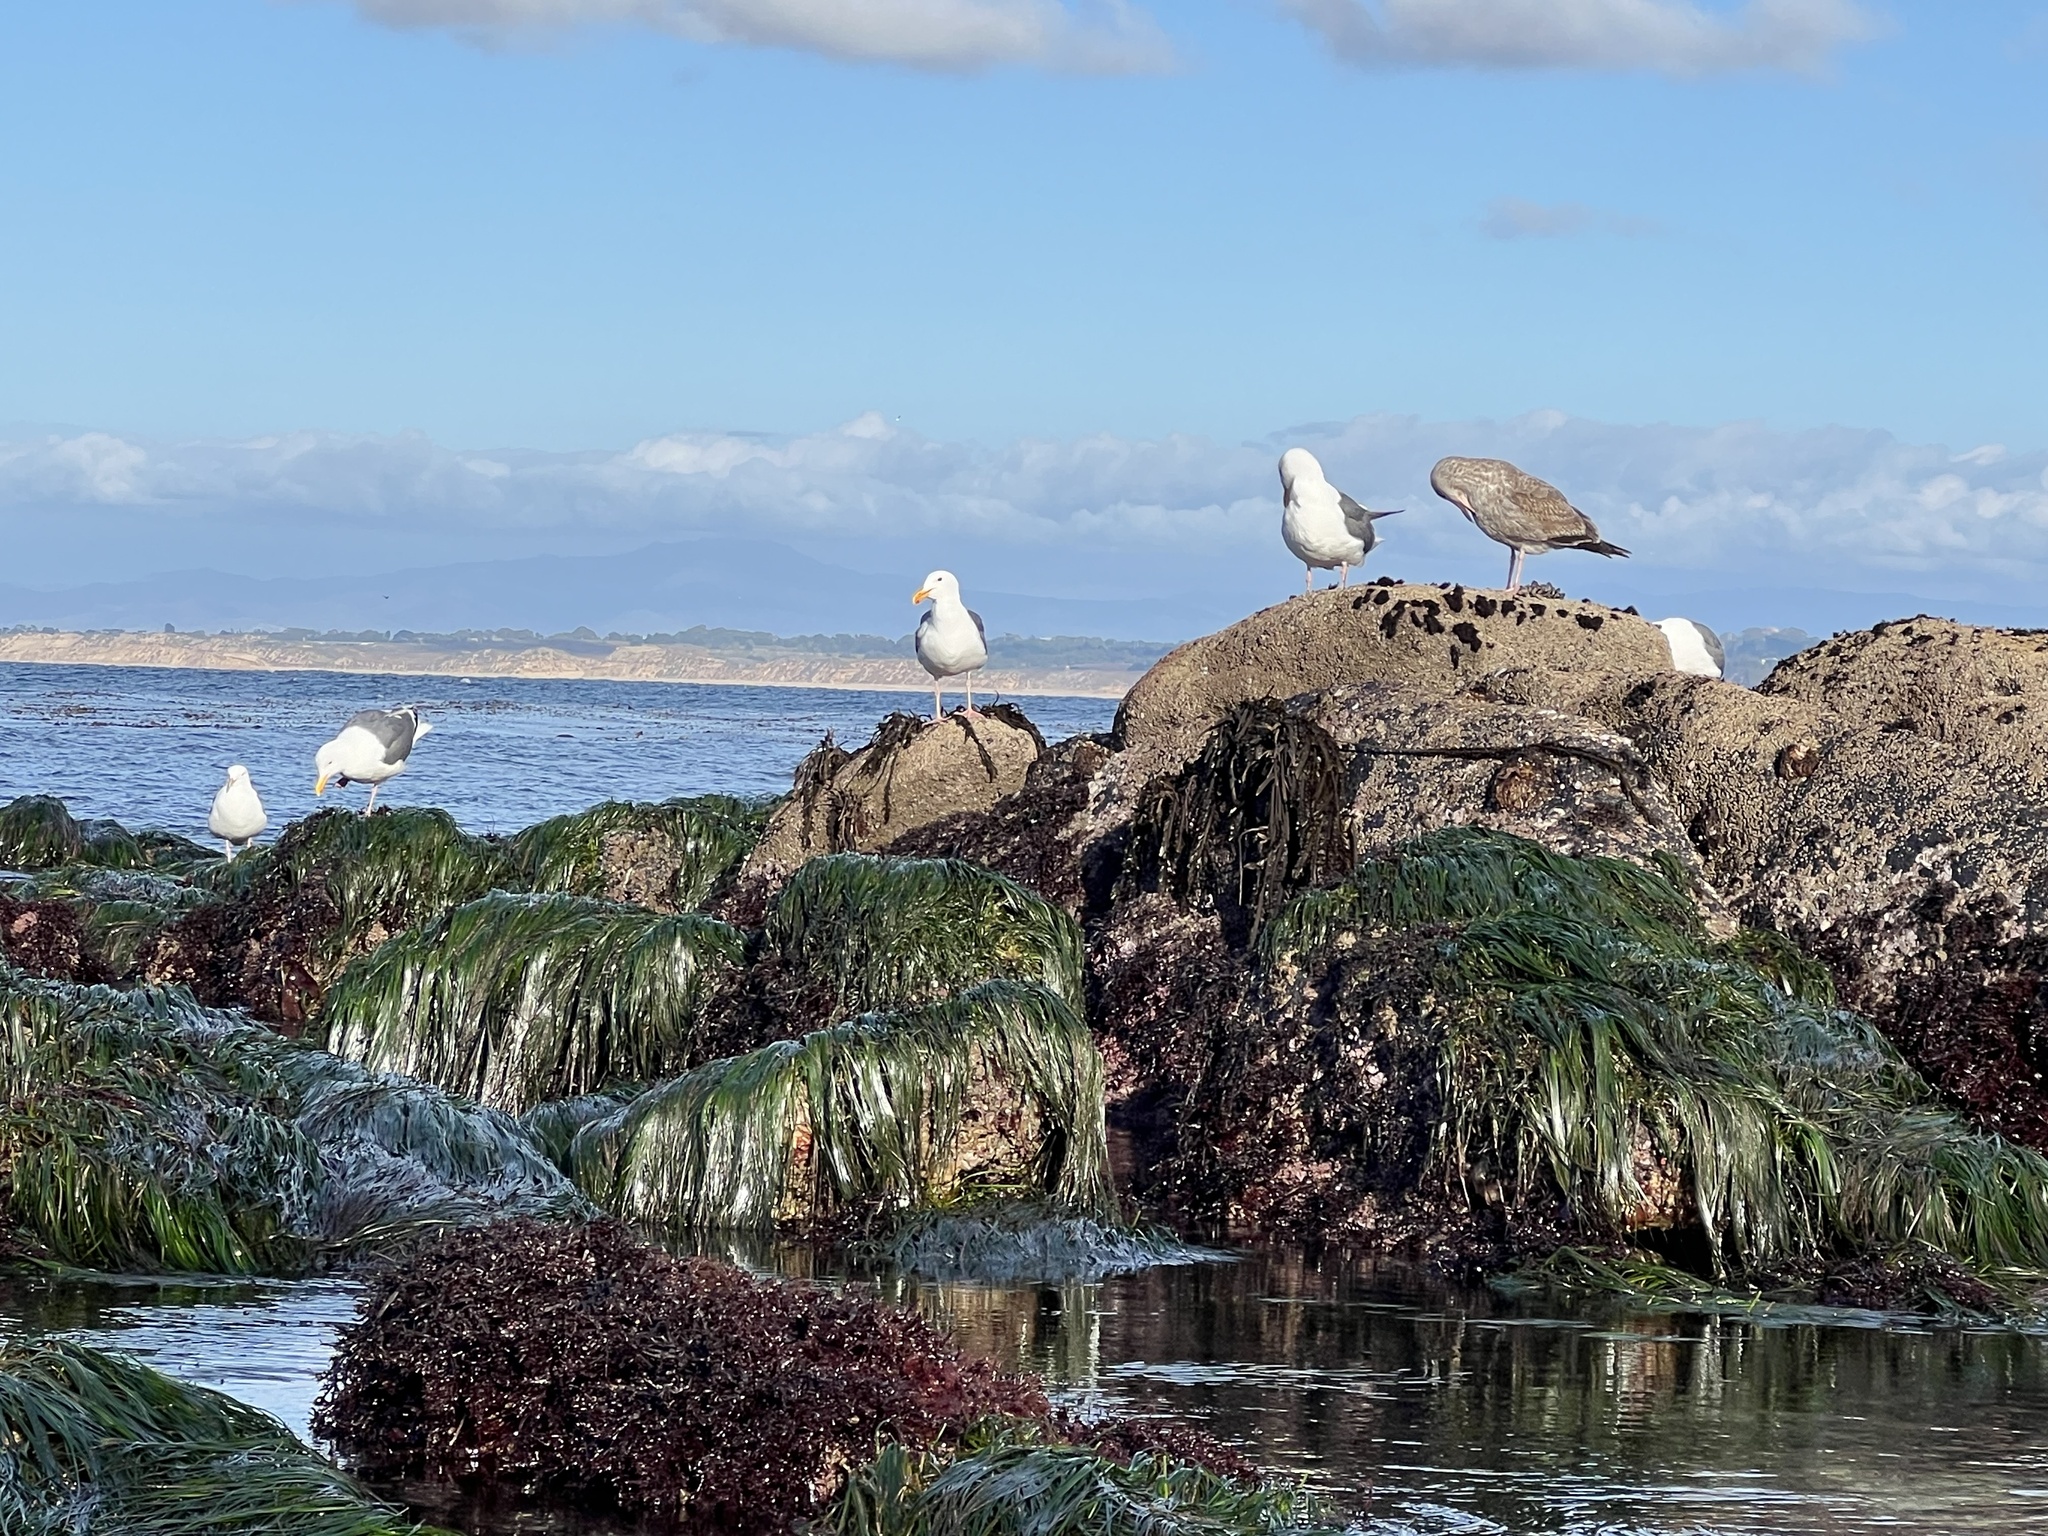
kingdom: Animalia
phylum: Chordata
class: Aves
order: Charadriiformes
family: Laridae
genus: Larus
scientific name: Larus occidentalis
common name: Western gull
